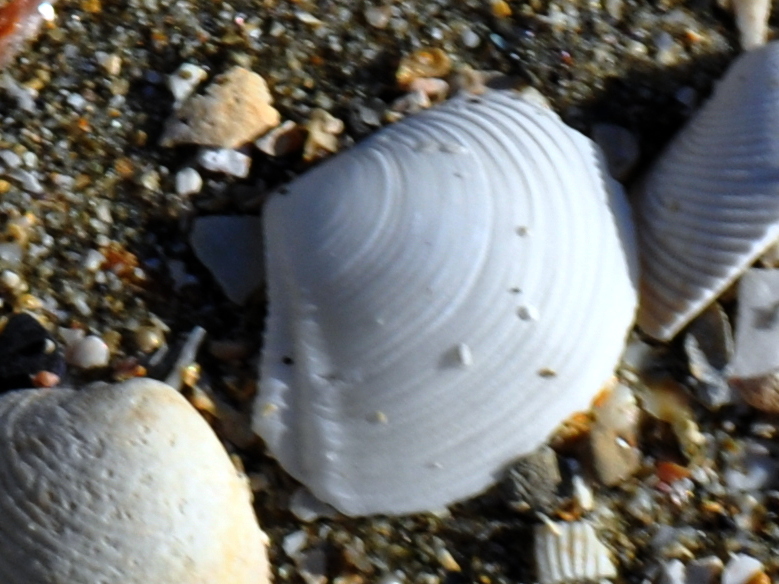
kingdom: Animalia
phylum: Mollusca
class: Bivalvia
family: Myochamidae
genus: Myadora
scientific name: Myadora striata
